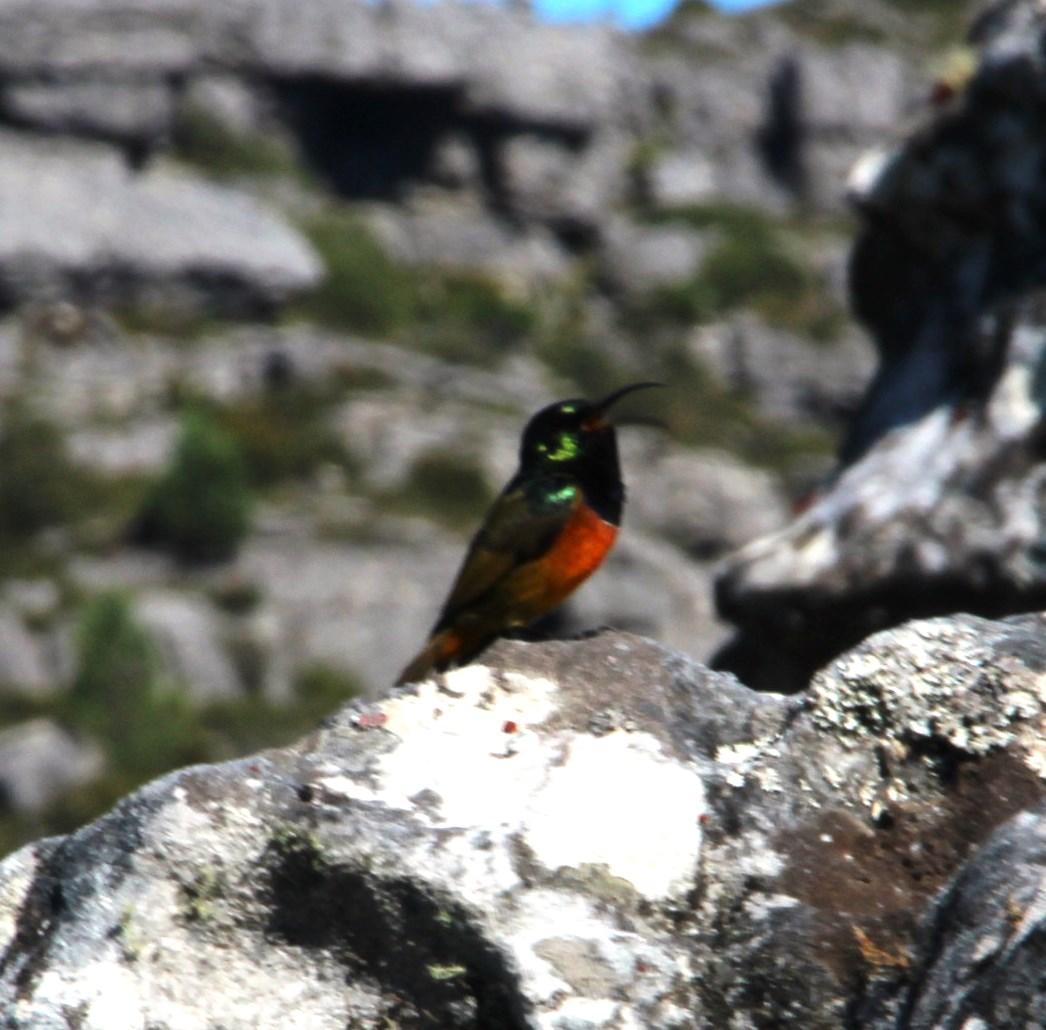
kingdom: Animalia
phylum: Chordata
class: Aves
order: Passeriformes
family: Nectariniidae
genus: Anthobaphes
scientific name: Anthobaphes violacea
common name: Orange-breasted sunbird
